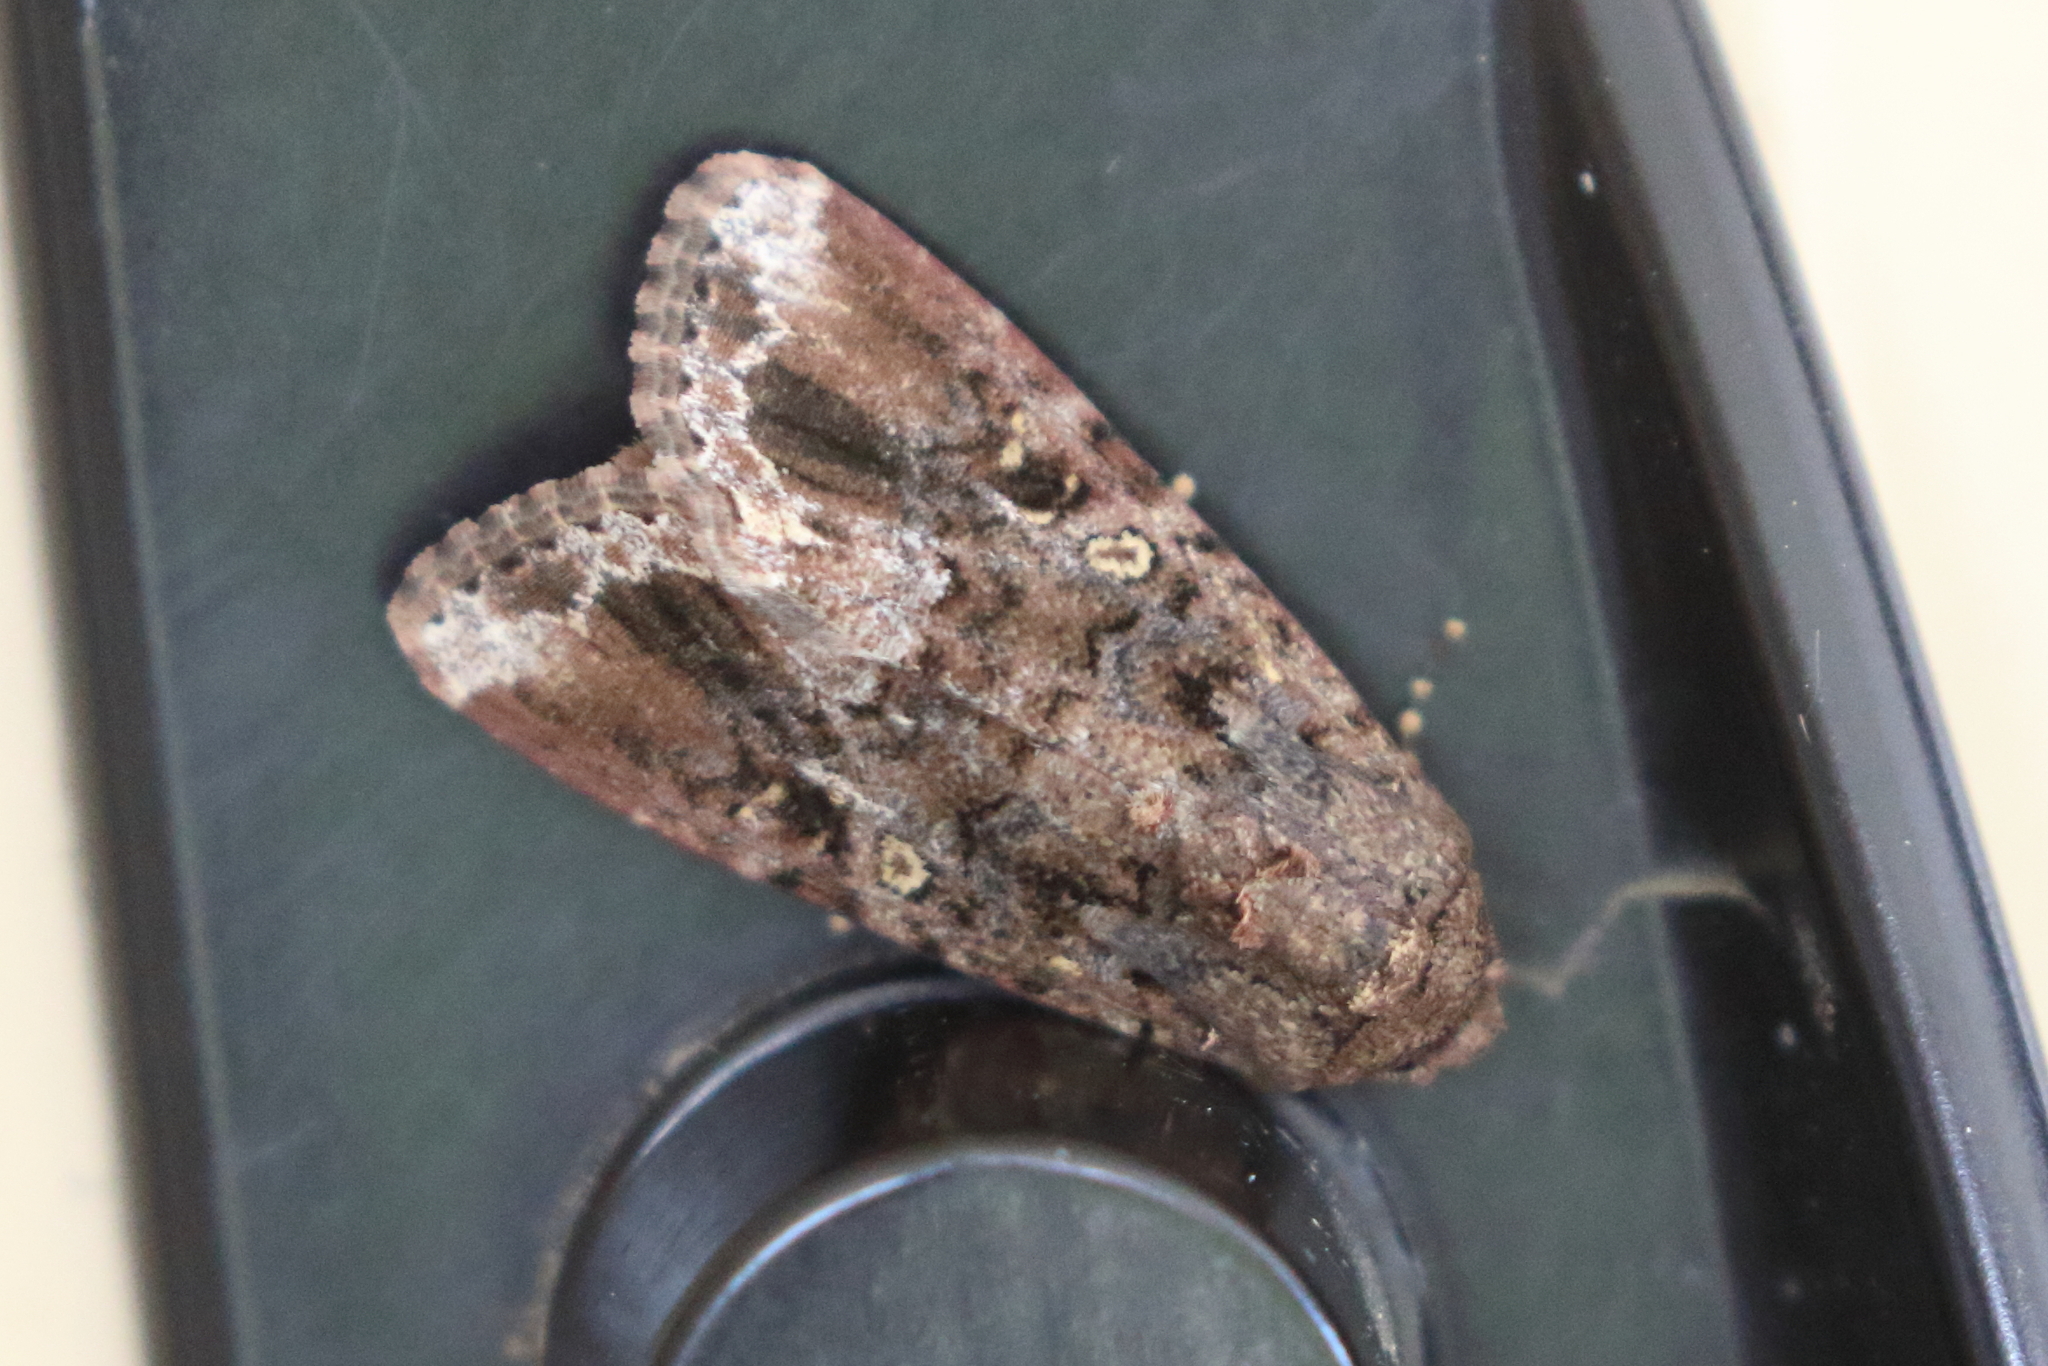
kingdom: Animalia
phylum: Arthropoda
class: Insecta
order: Lepidoptera
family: Noctuidae
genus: Spodoptera
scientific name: Spodoptera mauritia
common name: Lawn armyworm
